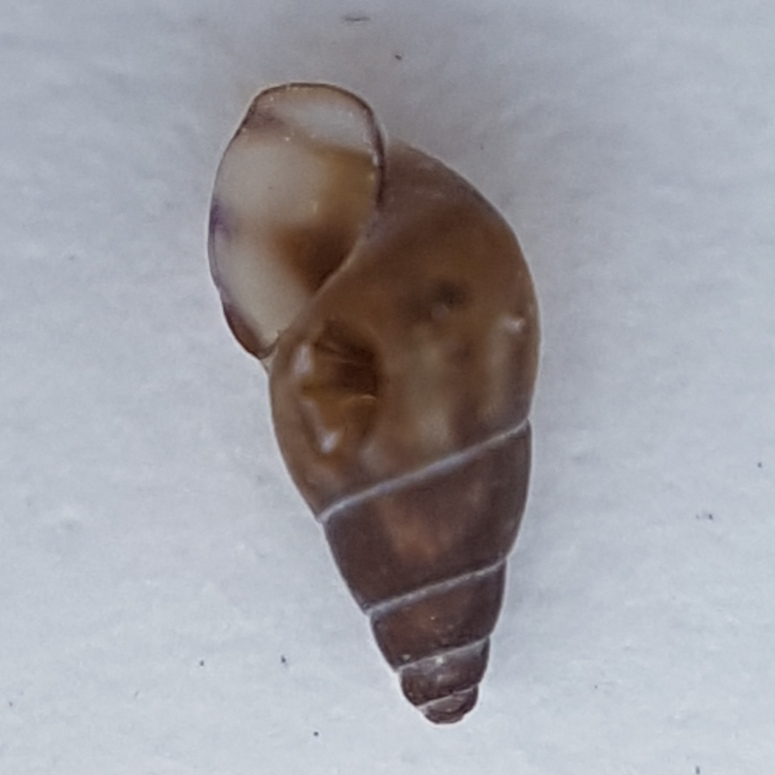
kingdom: Animalia
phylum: Mollusca
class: Gastropoda
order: Littorinimorpha
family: Rissoidae
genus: Rissoa
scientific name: Rissoa parva
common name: Tiny risso snail
